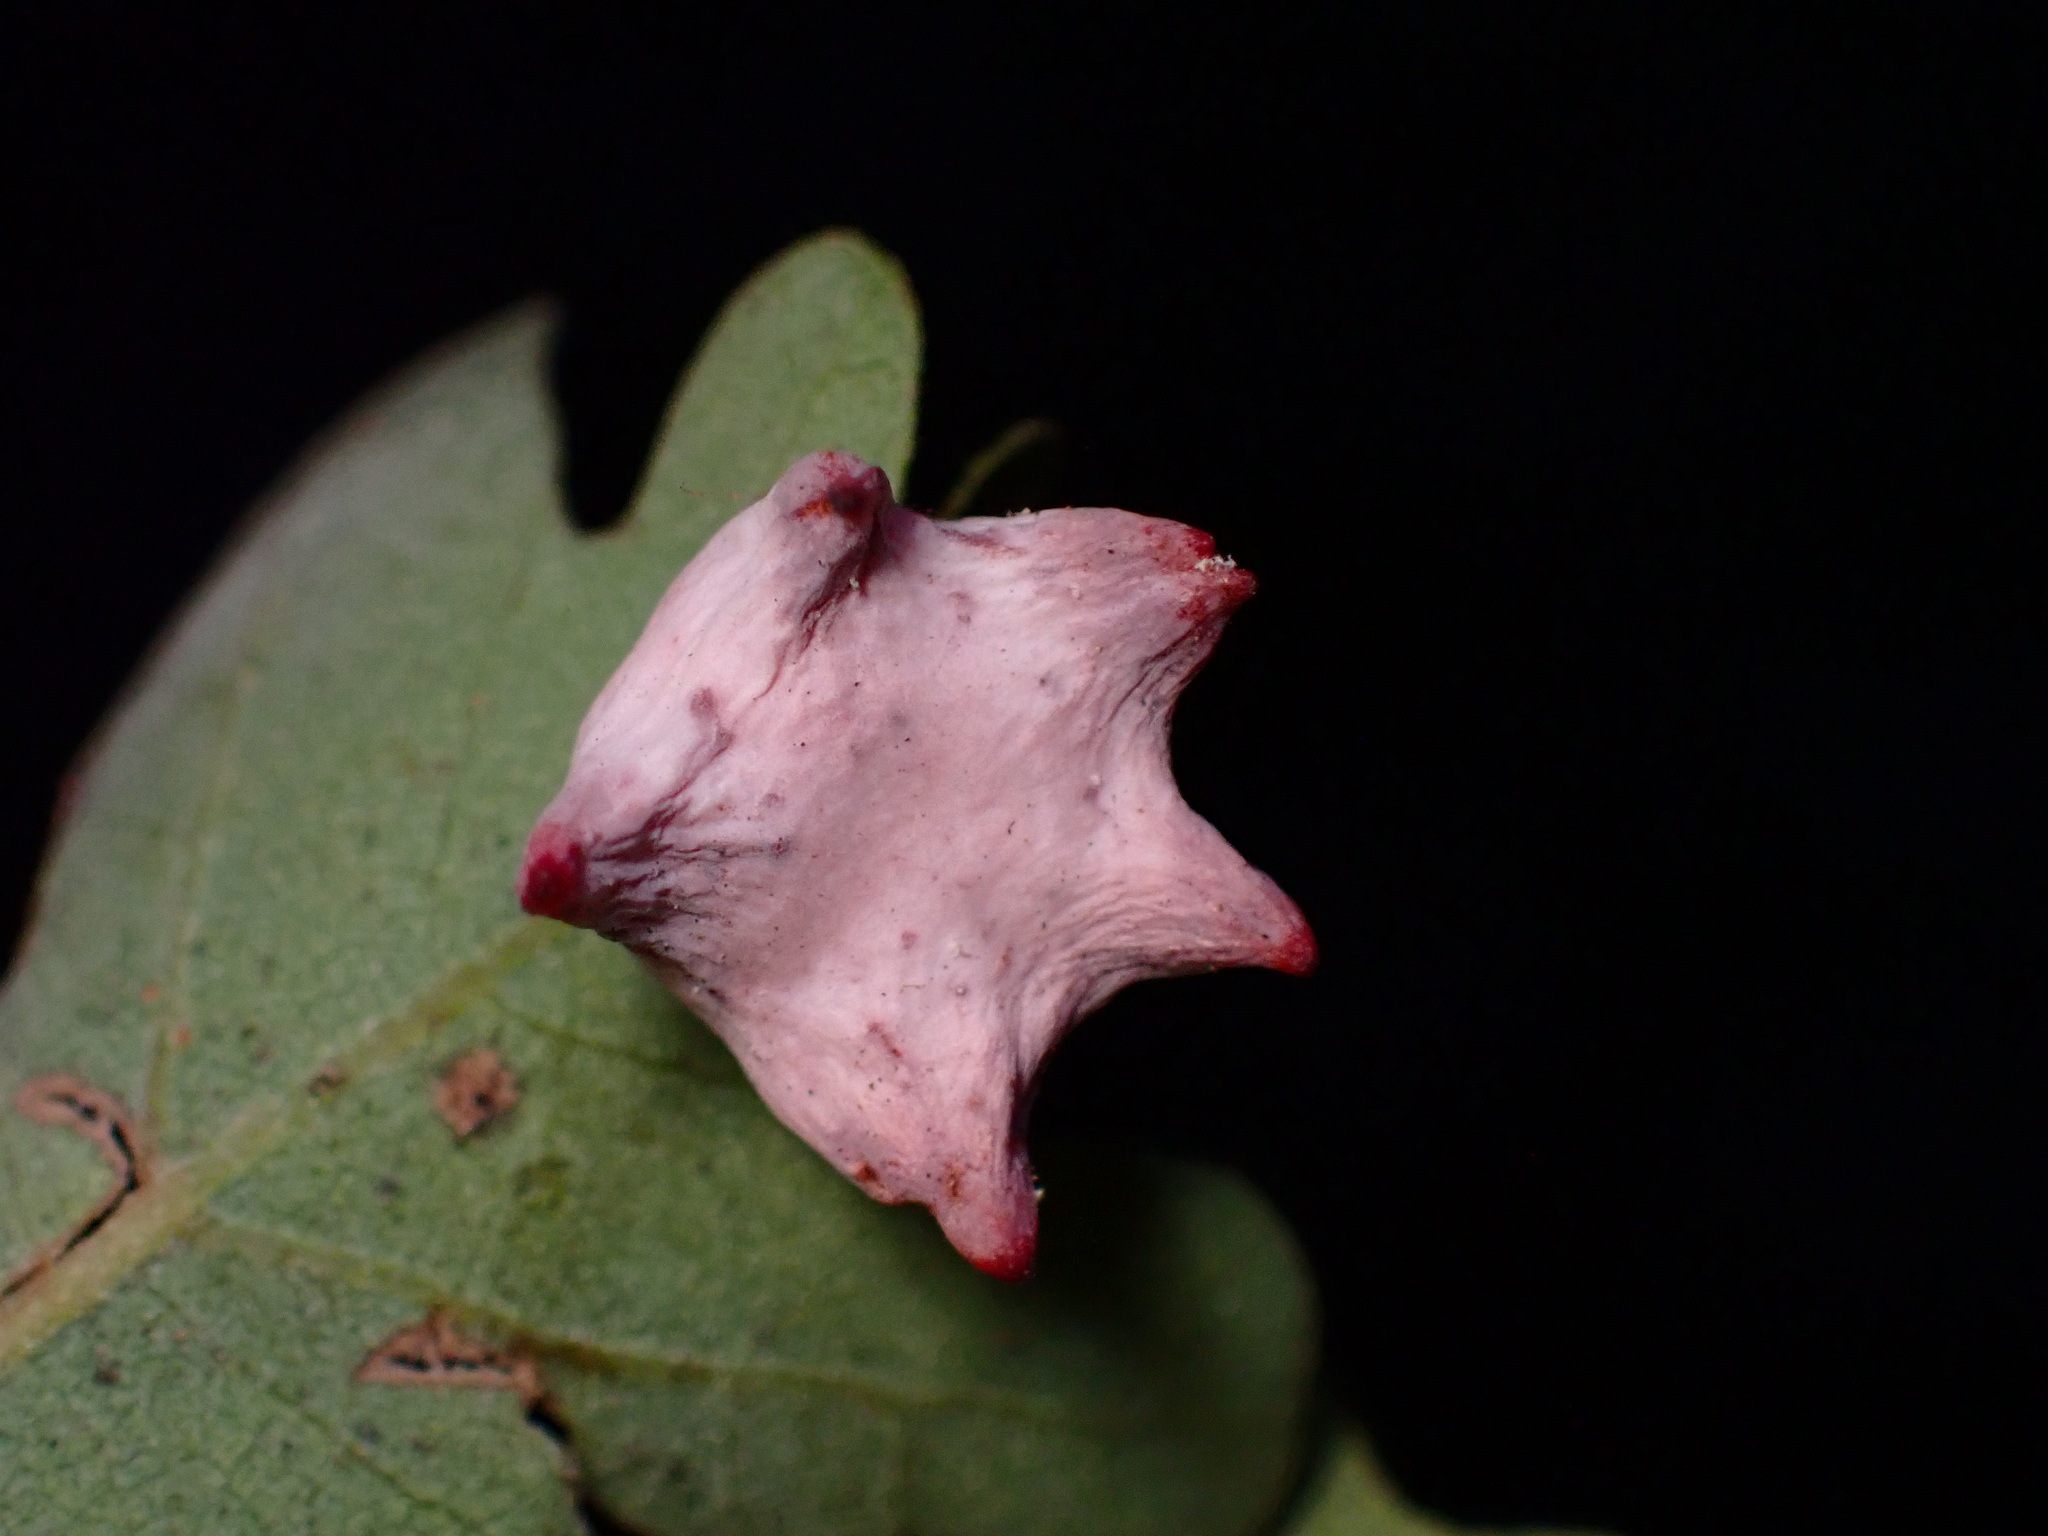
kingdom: Animalia
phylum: Arthropoda
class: Insecta
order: Hymenoptera
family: Cynipidae
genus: Cynips
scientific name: Cynips douglasi
